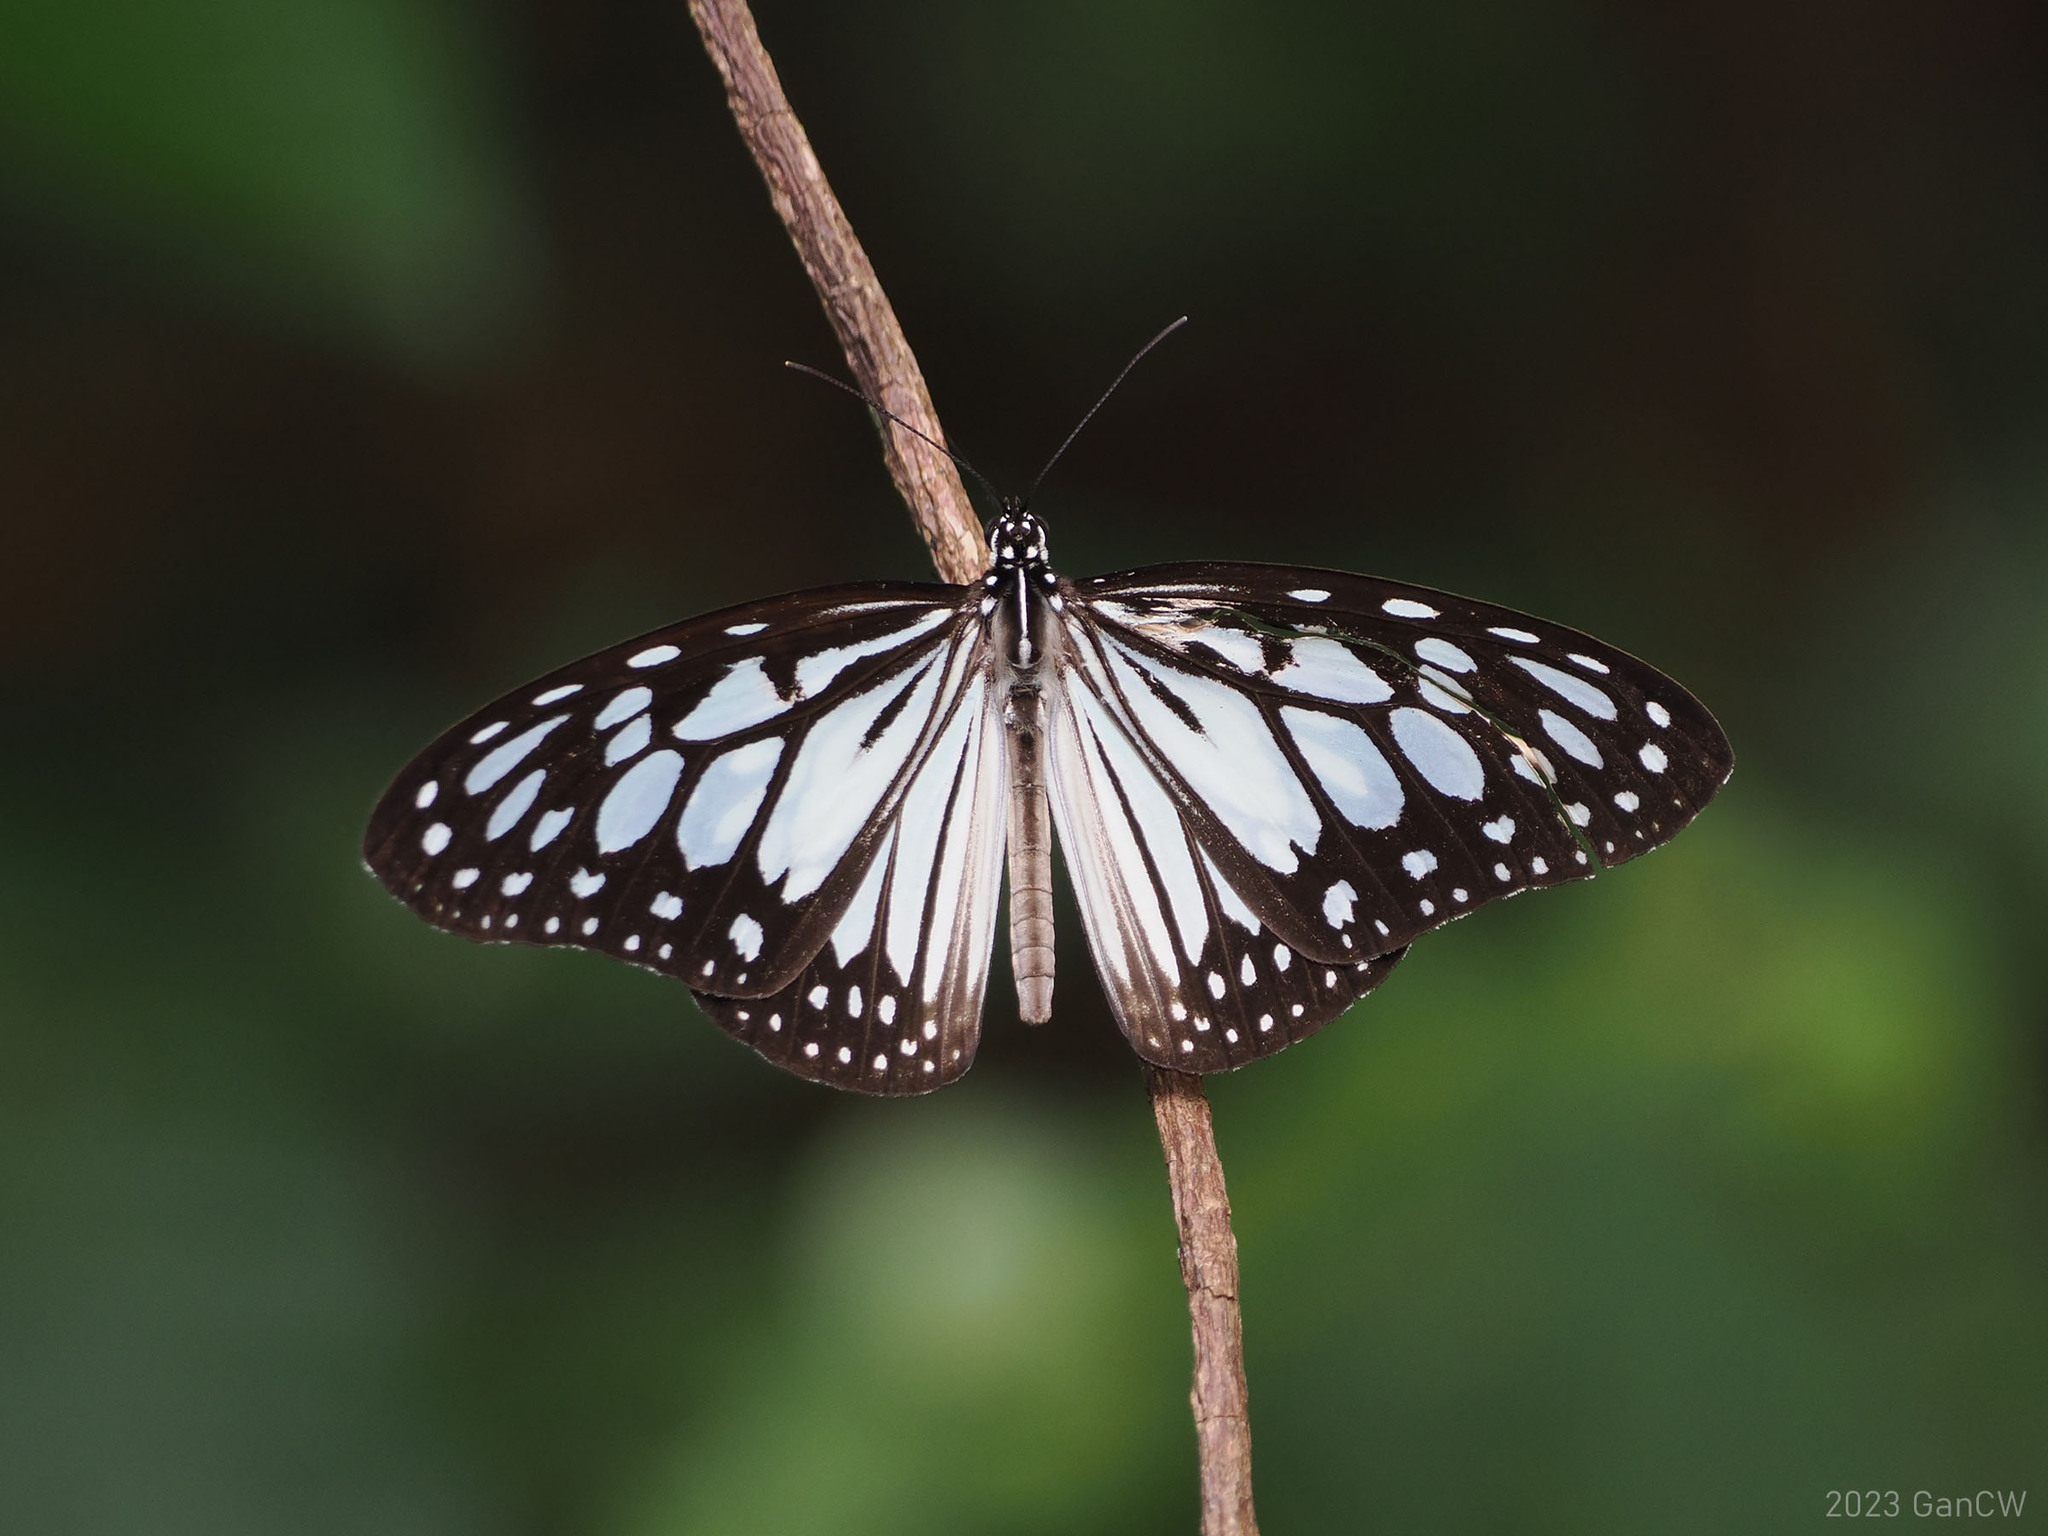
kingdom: Animalia
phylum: Arthropoda
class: Insecta
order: Lepidoptera
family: Nymphalidae
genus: Ideopsis
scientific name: Ideopsis juventa
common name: Grey glassy tiger
